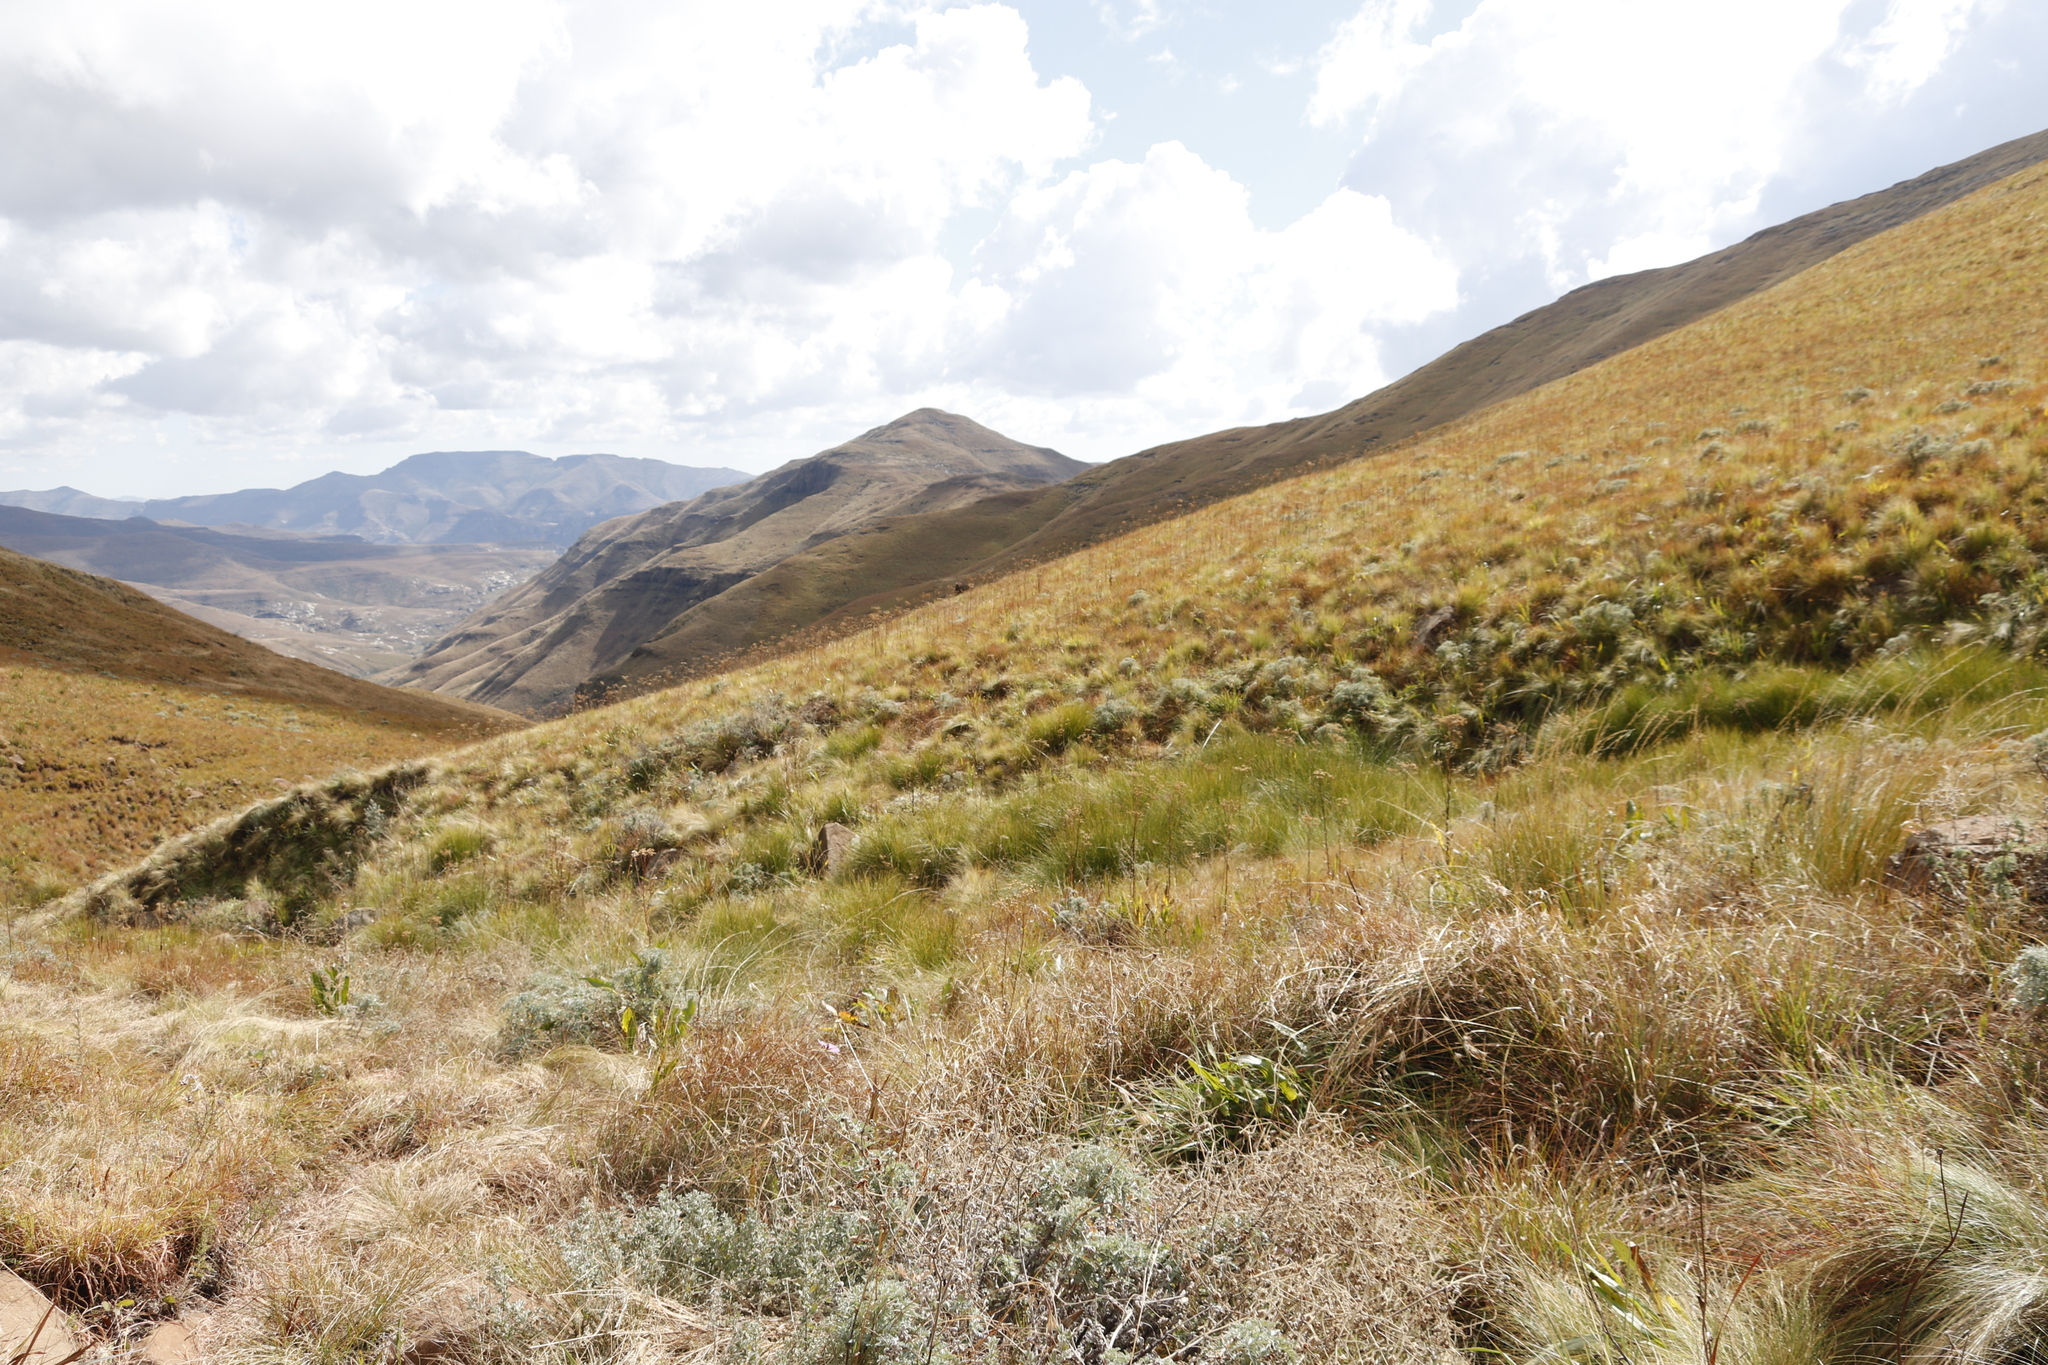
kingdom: Plantae
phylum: Tracheophyta
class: Magnoliopsida
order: Asterales
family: Asteraceae
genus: Senecio
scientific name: Senecio inornatus
